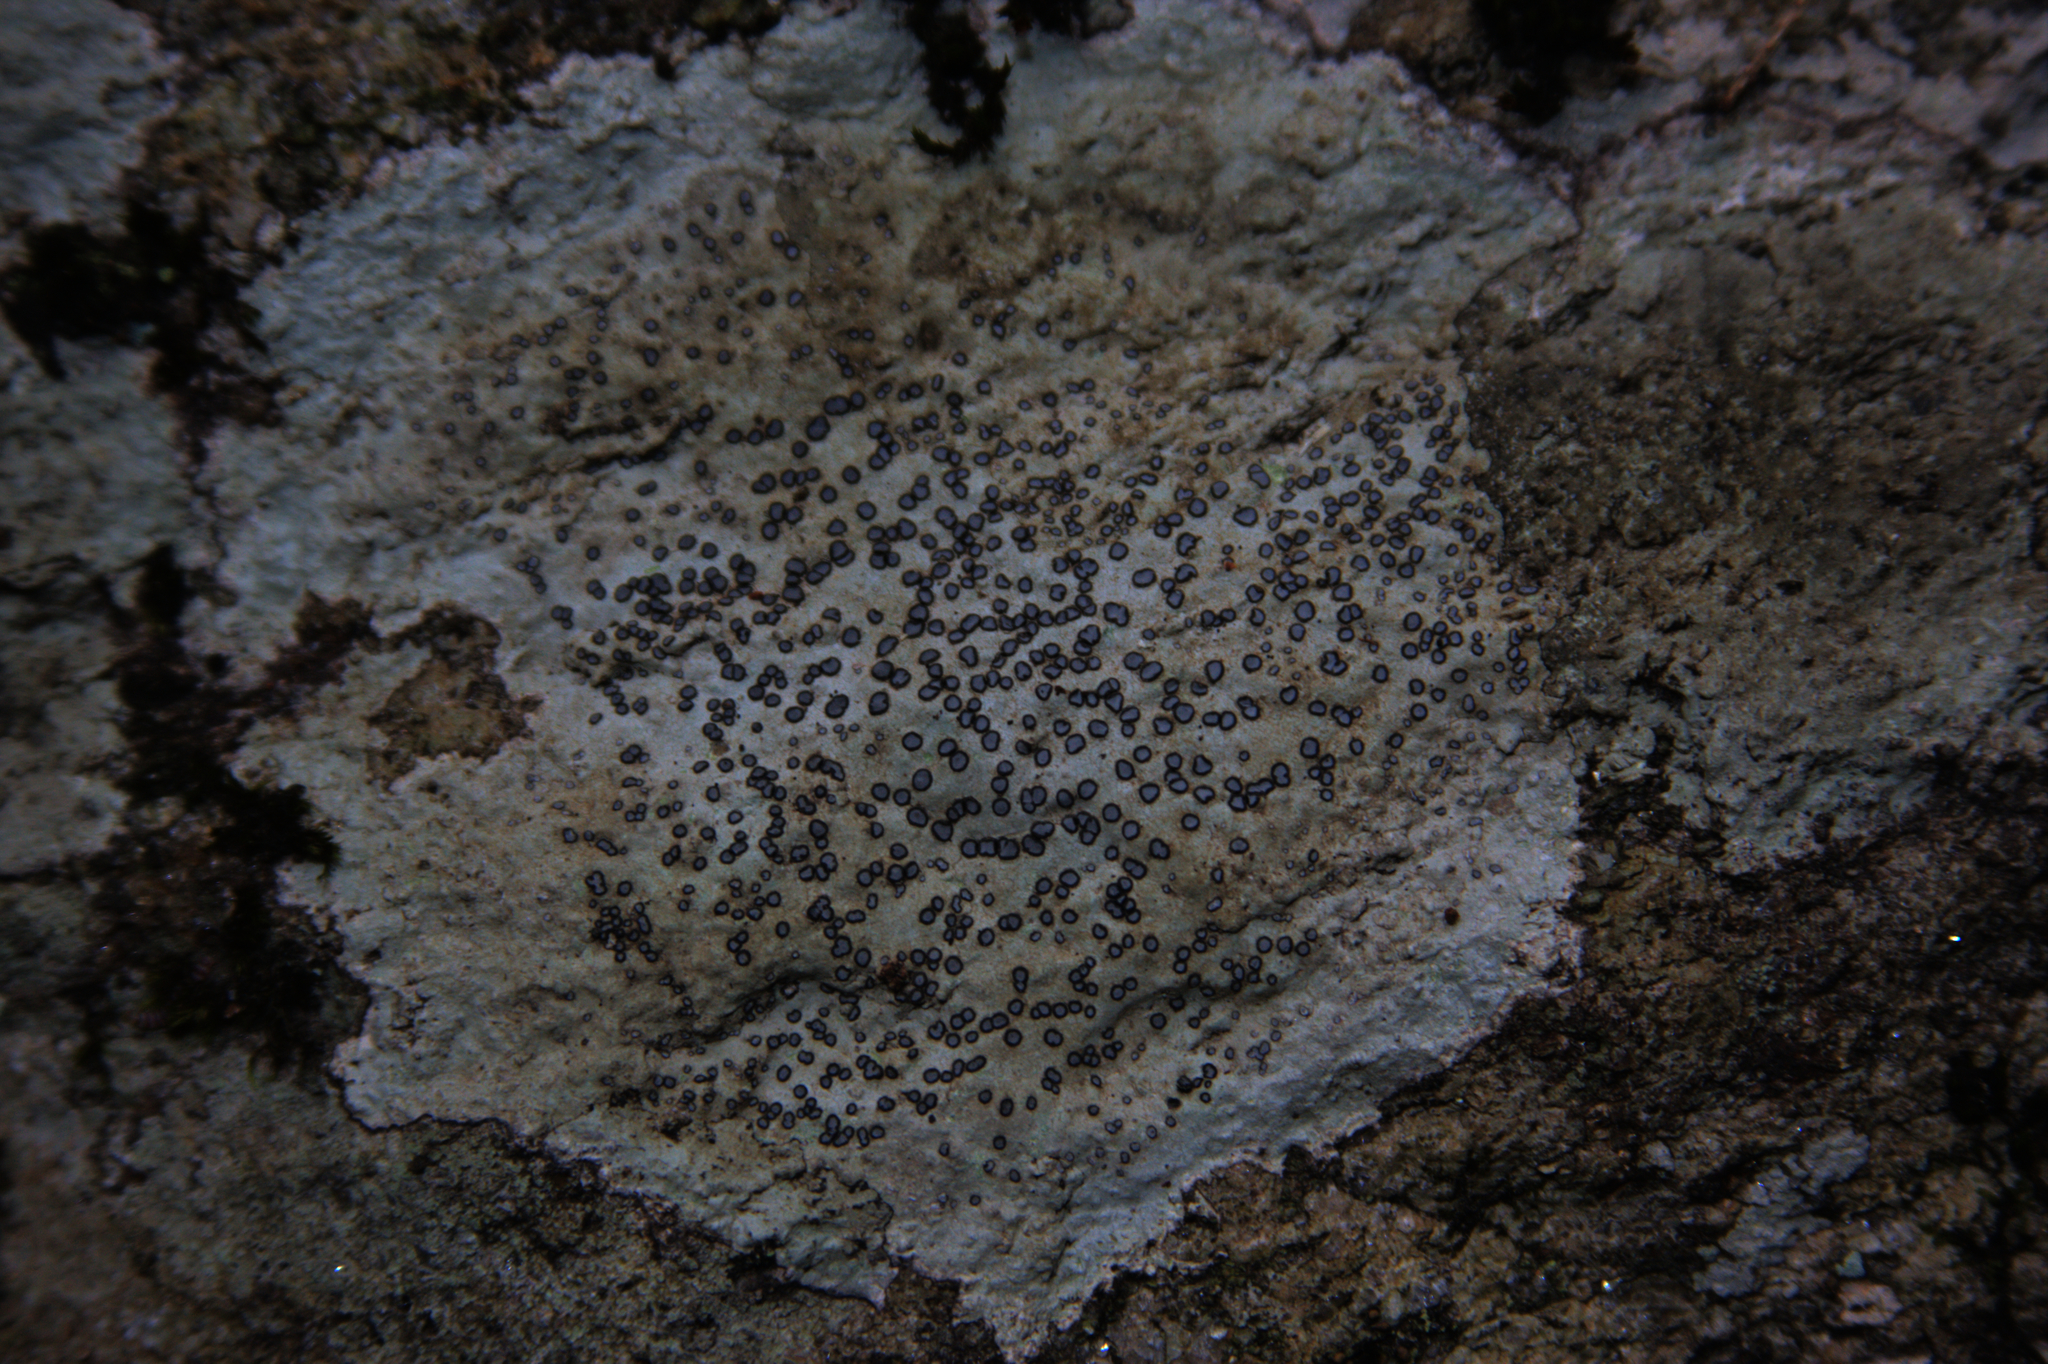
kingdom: Fungi
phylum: Ascomycota
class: Lecanoromycetes
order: Lecideales
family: Lecideaceae
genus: Porpidia
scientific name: Porpidia albocaerulescens
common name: Smokey-eyed boulder lichen
